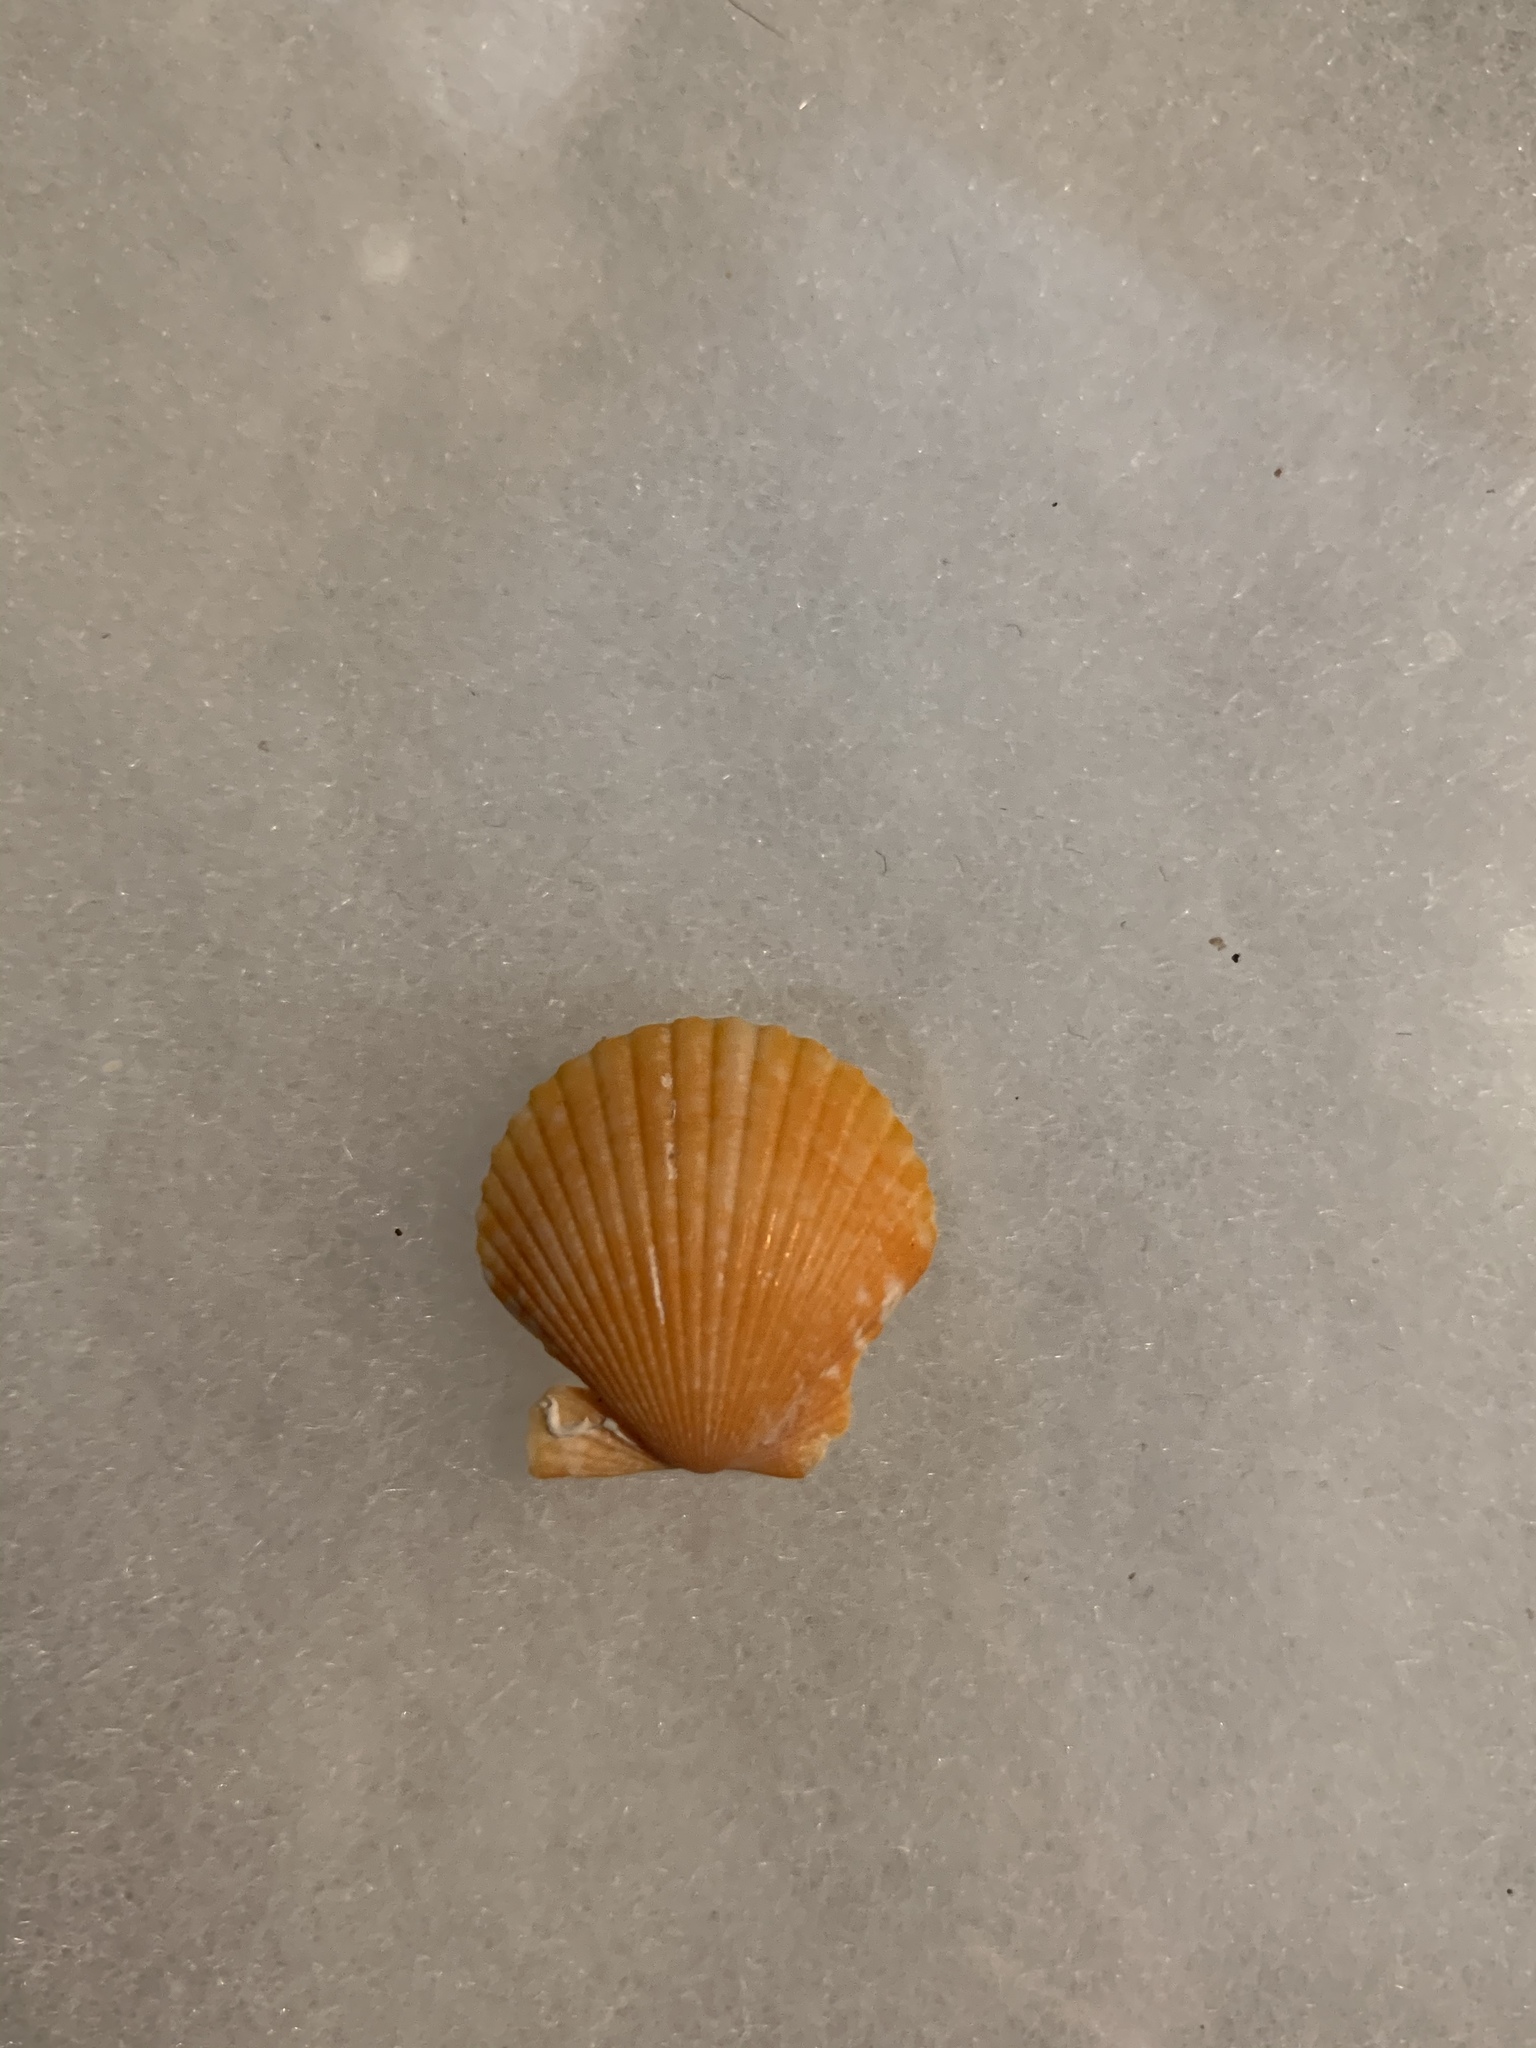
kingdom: Animalia
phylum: Mollusca
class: Bivalvia
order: Pectinida
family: Pectinidae
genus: Argopecten
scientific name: Argopecten gibbus
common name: Atlantic calico scallop
